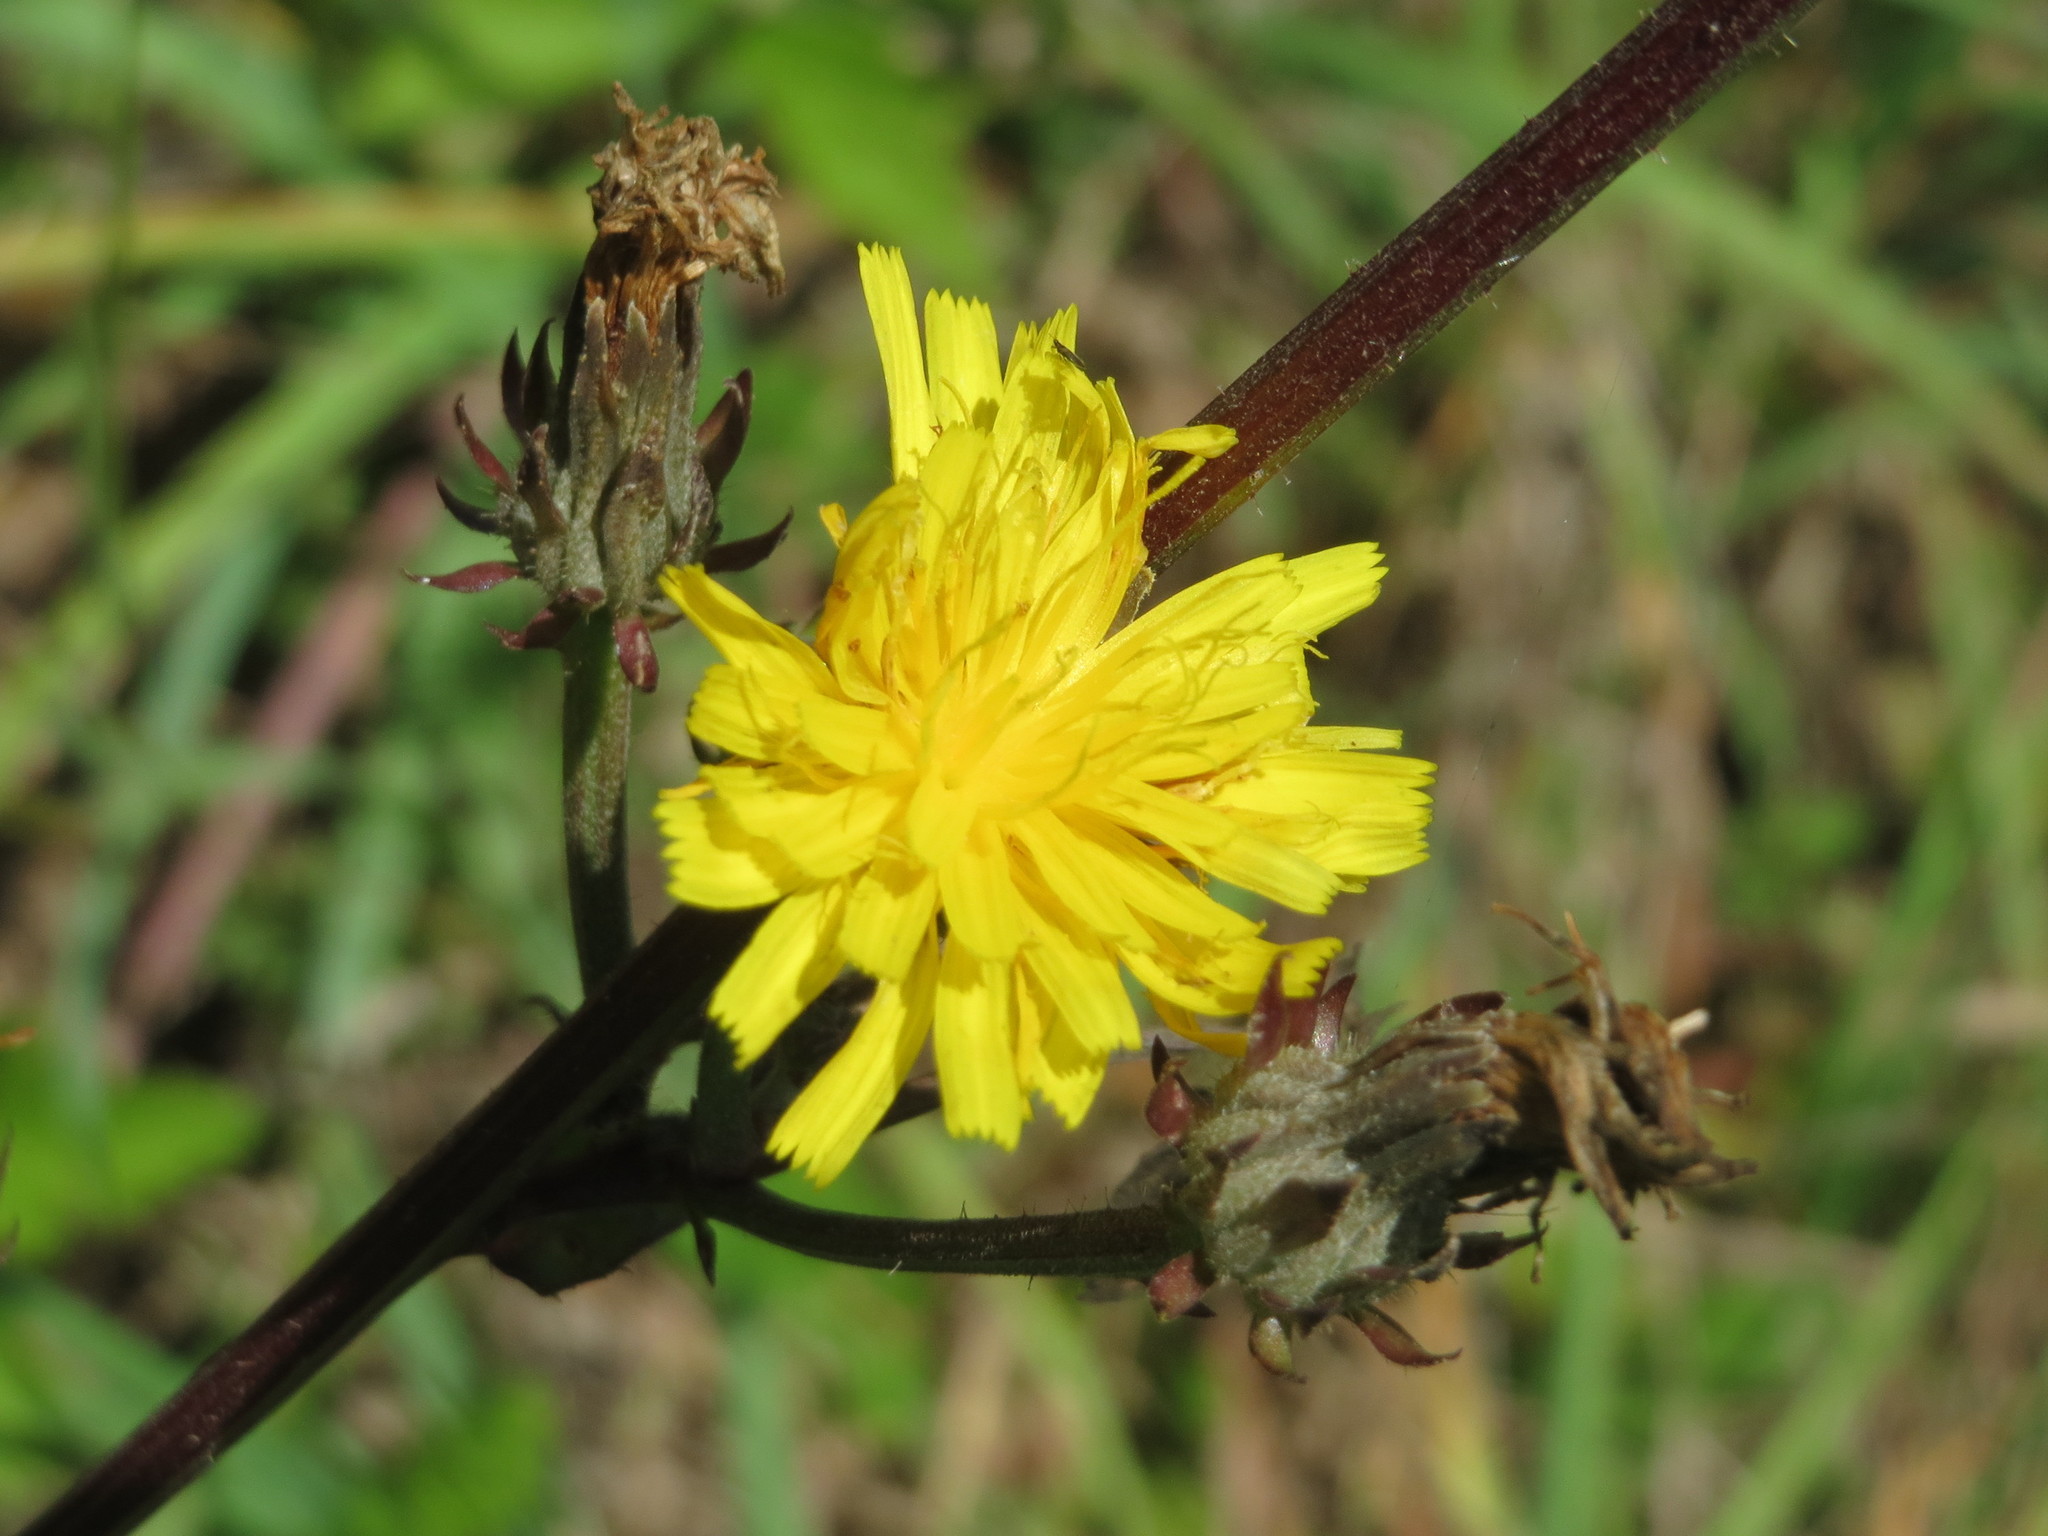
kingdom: Plantae
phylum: Tracheophyta
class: Magnoliopsida
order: Asterales
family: Asteraceae
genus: Picris
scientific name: Picris hieracioides
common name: Hawkweed oxtongue
